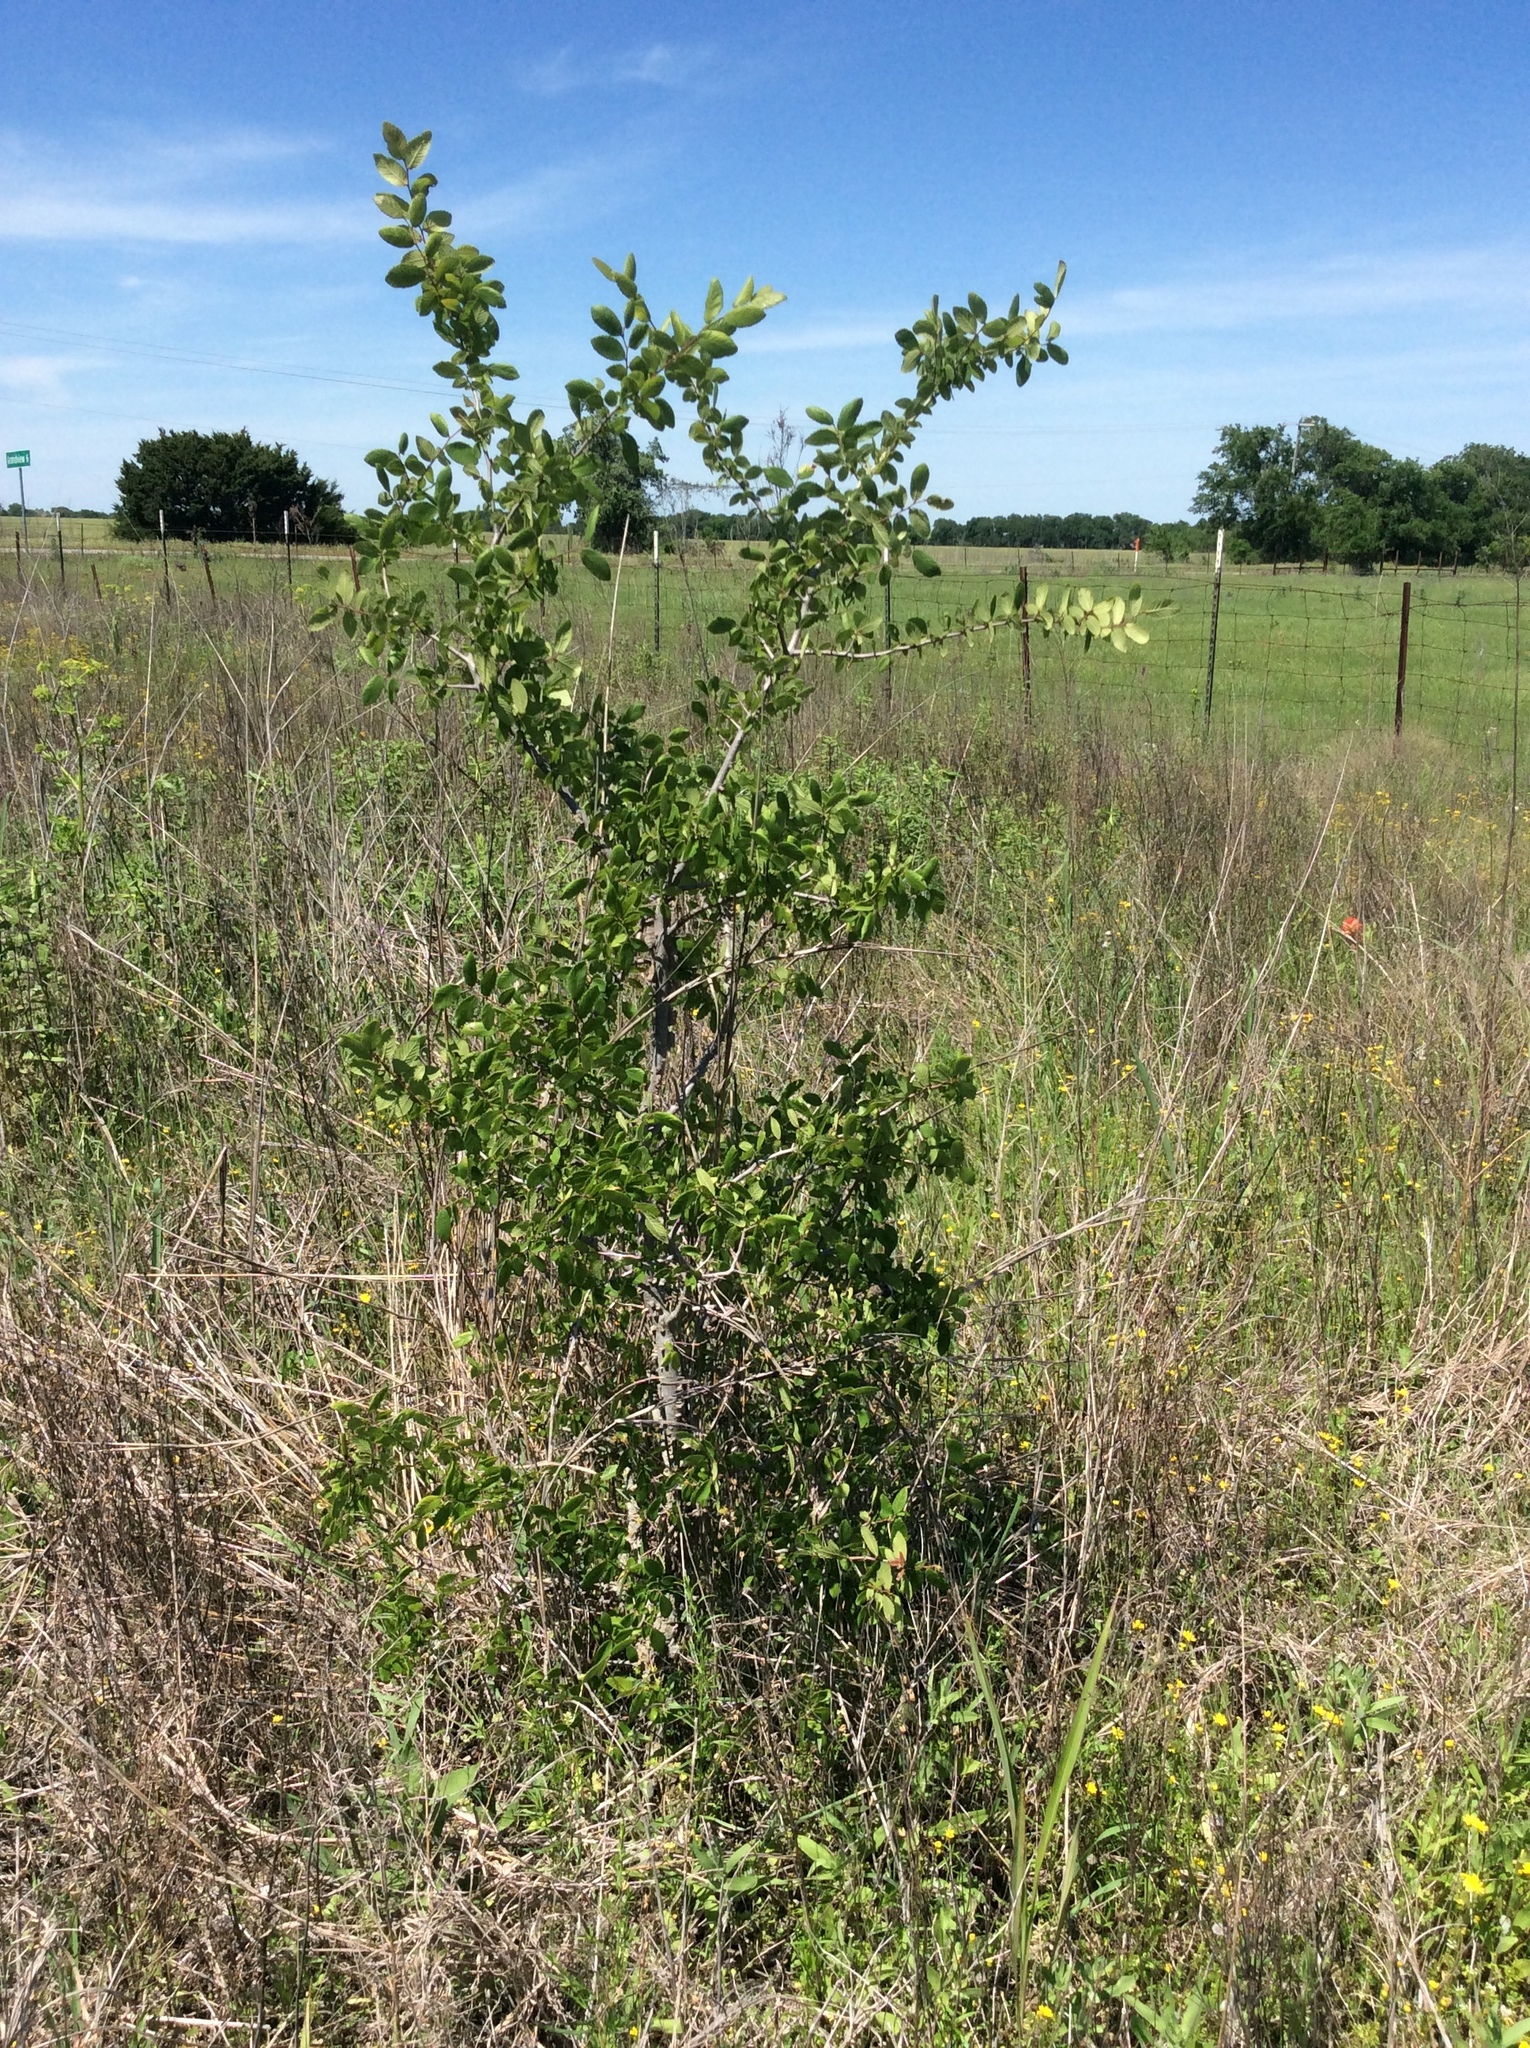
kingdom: Plantae
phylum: Tracheophyta
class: Magnoliopsida
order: Rosales
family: Ulmaceae
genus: Ulmus
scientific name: Ulmus crassifolia
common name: Basket elm
